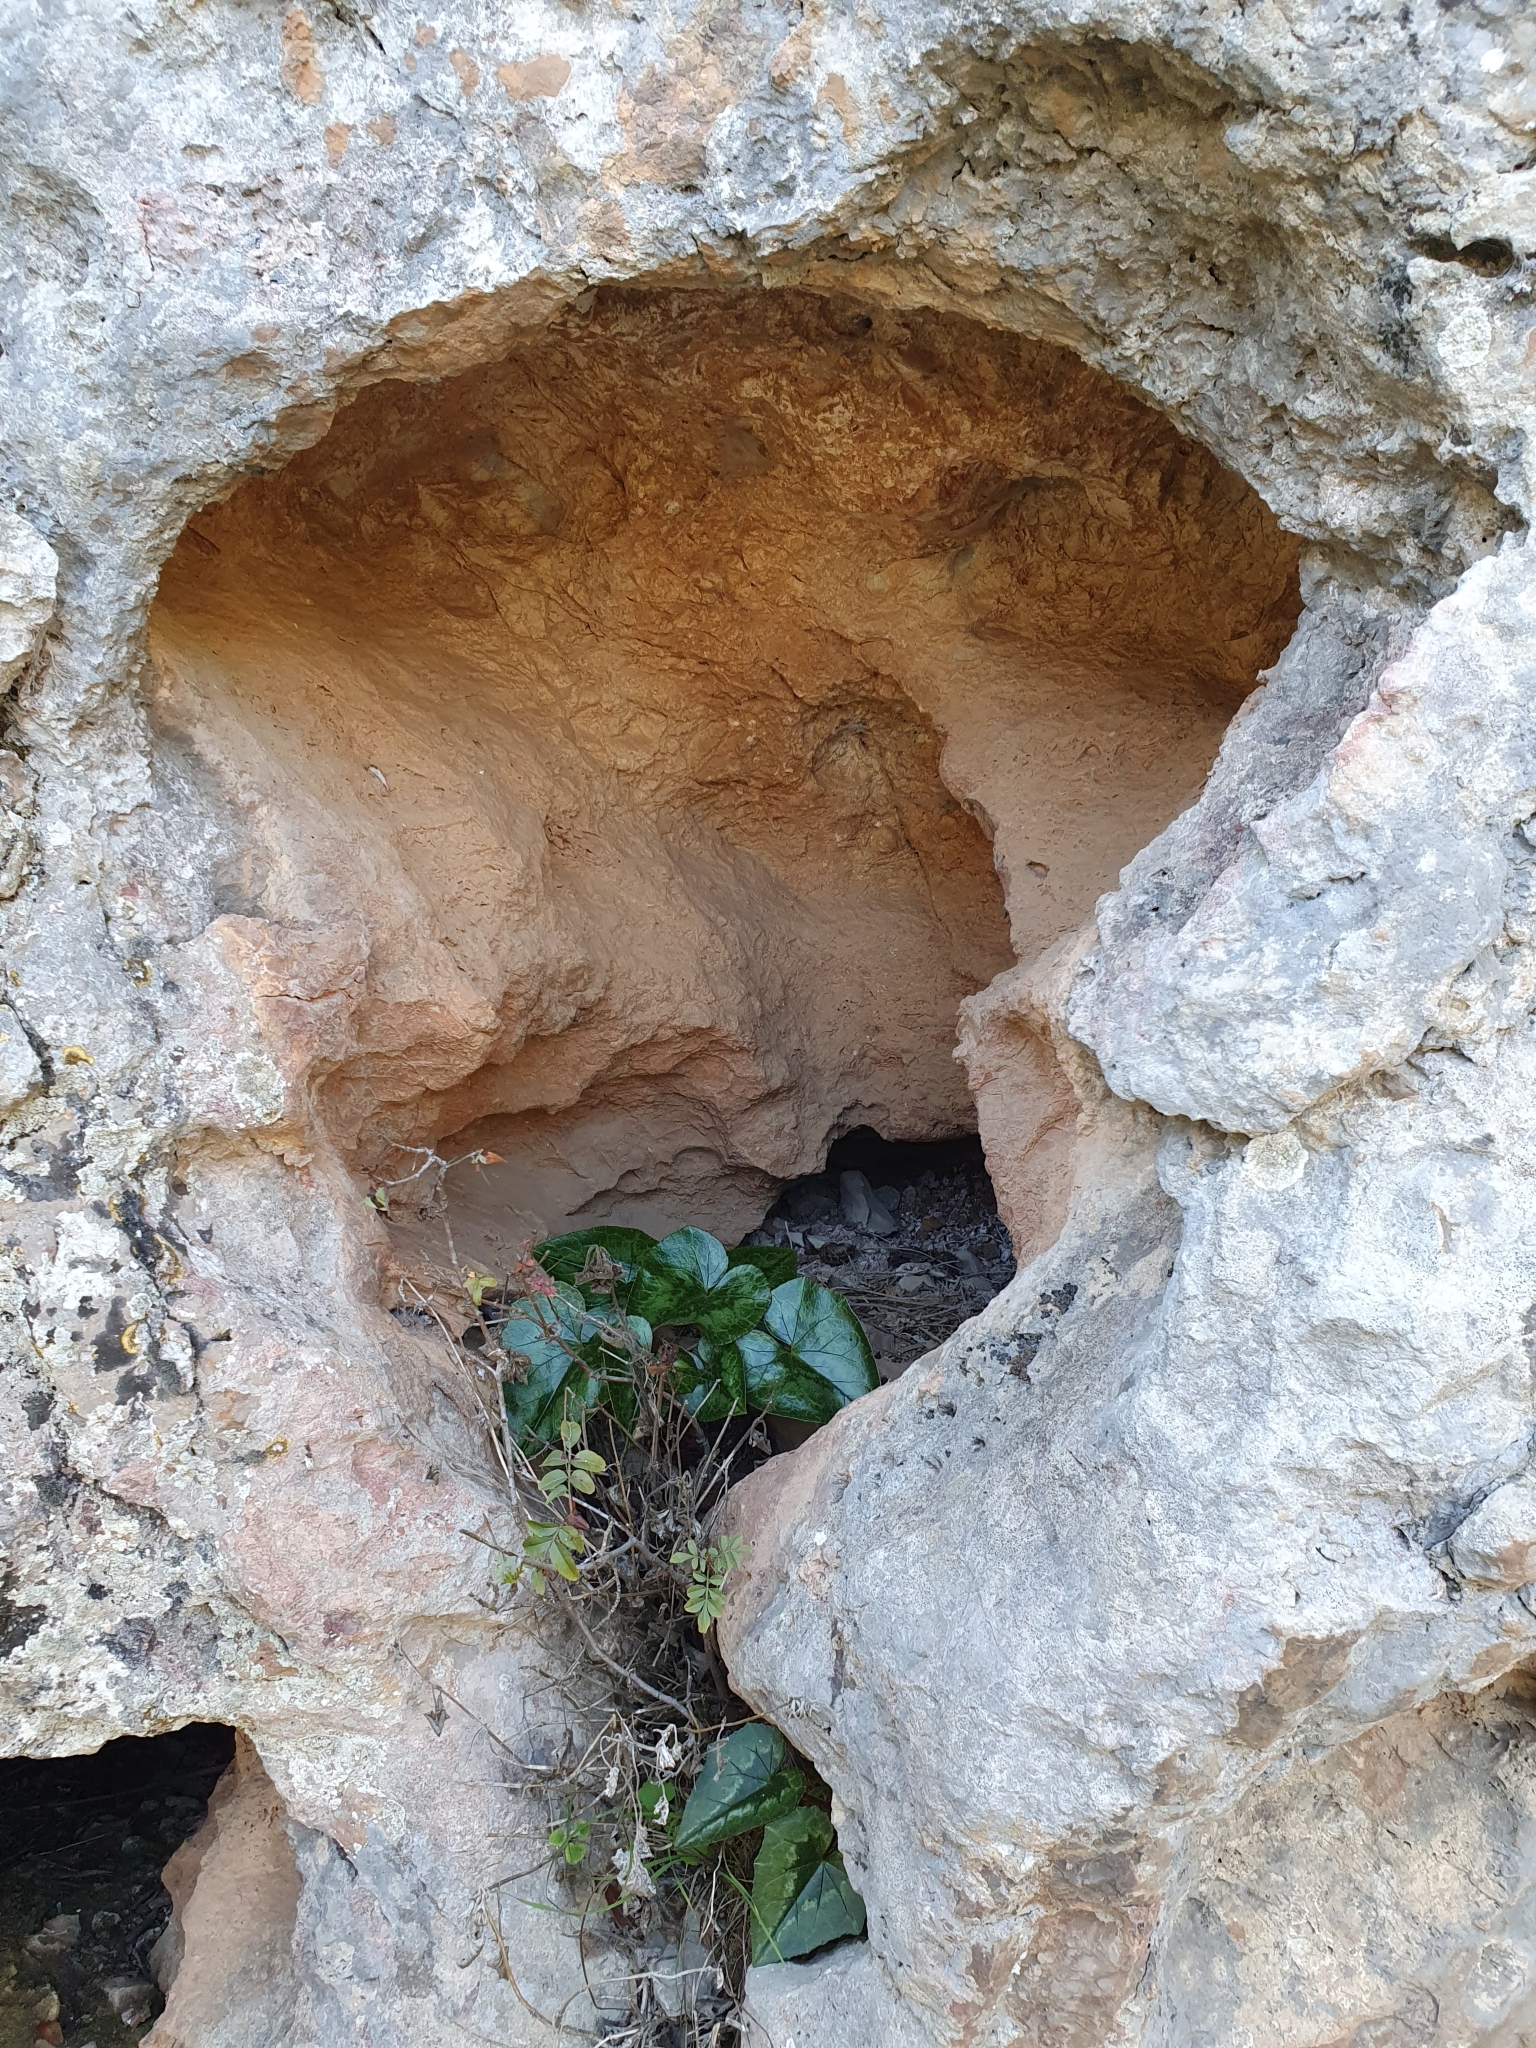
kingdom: Plantae
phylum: Tracheophyta
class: Magnoliopsida
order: Ericales
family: Primulaceae
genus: Cyclamen
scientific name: Cyclamen africanum
